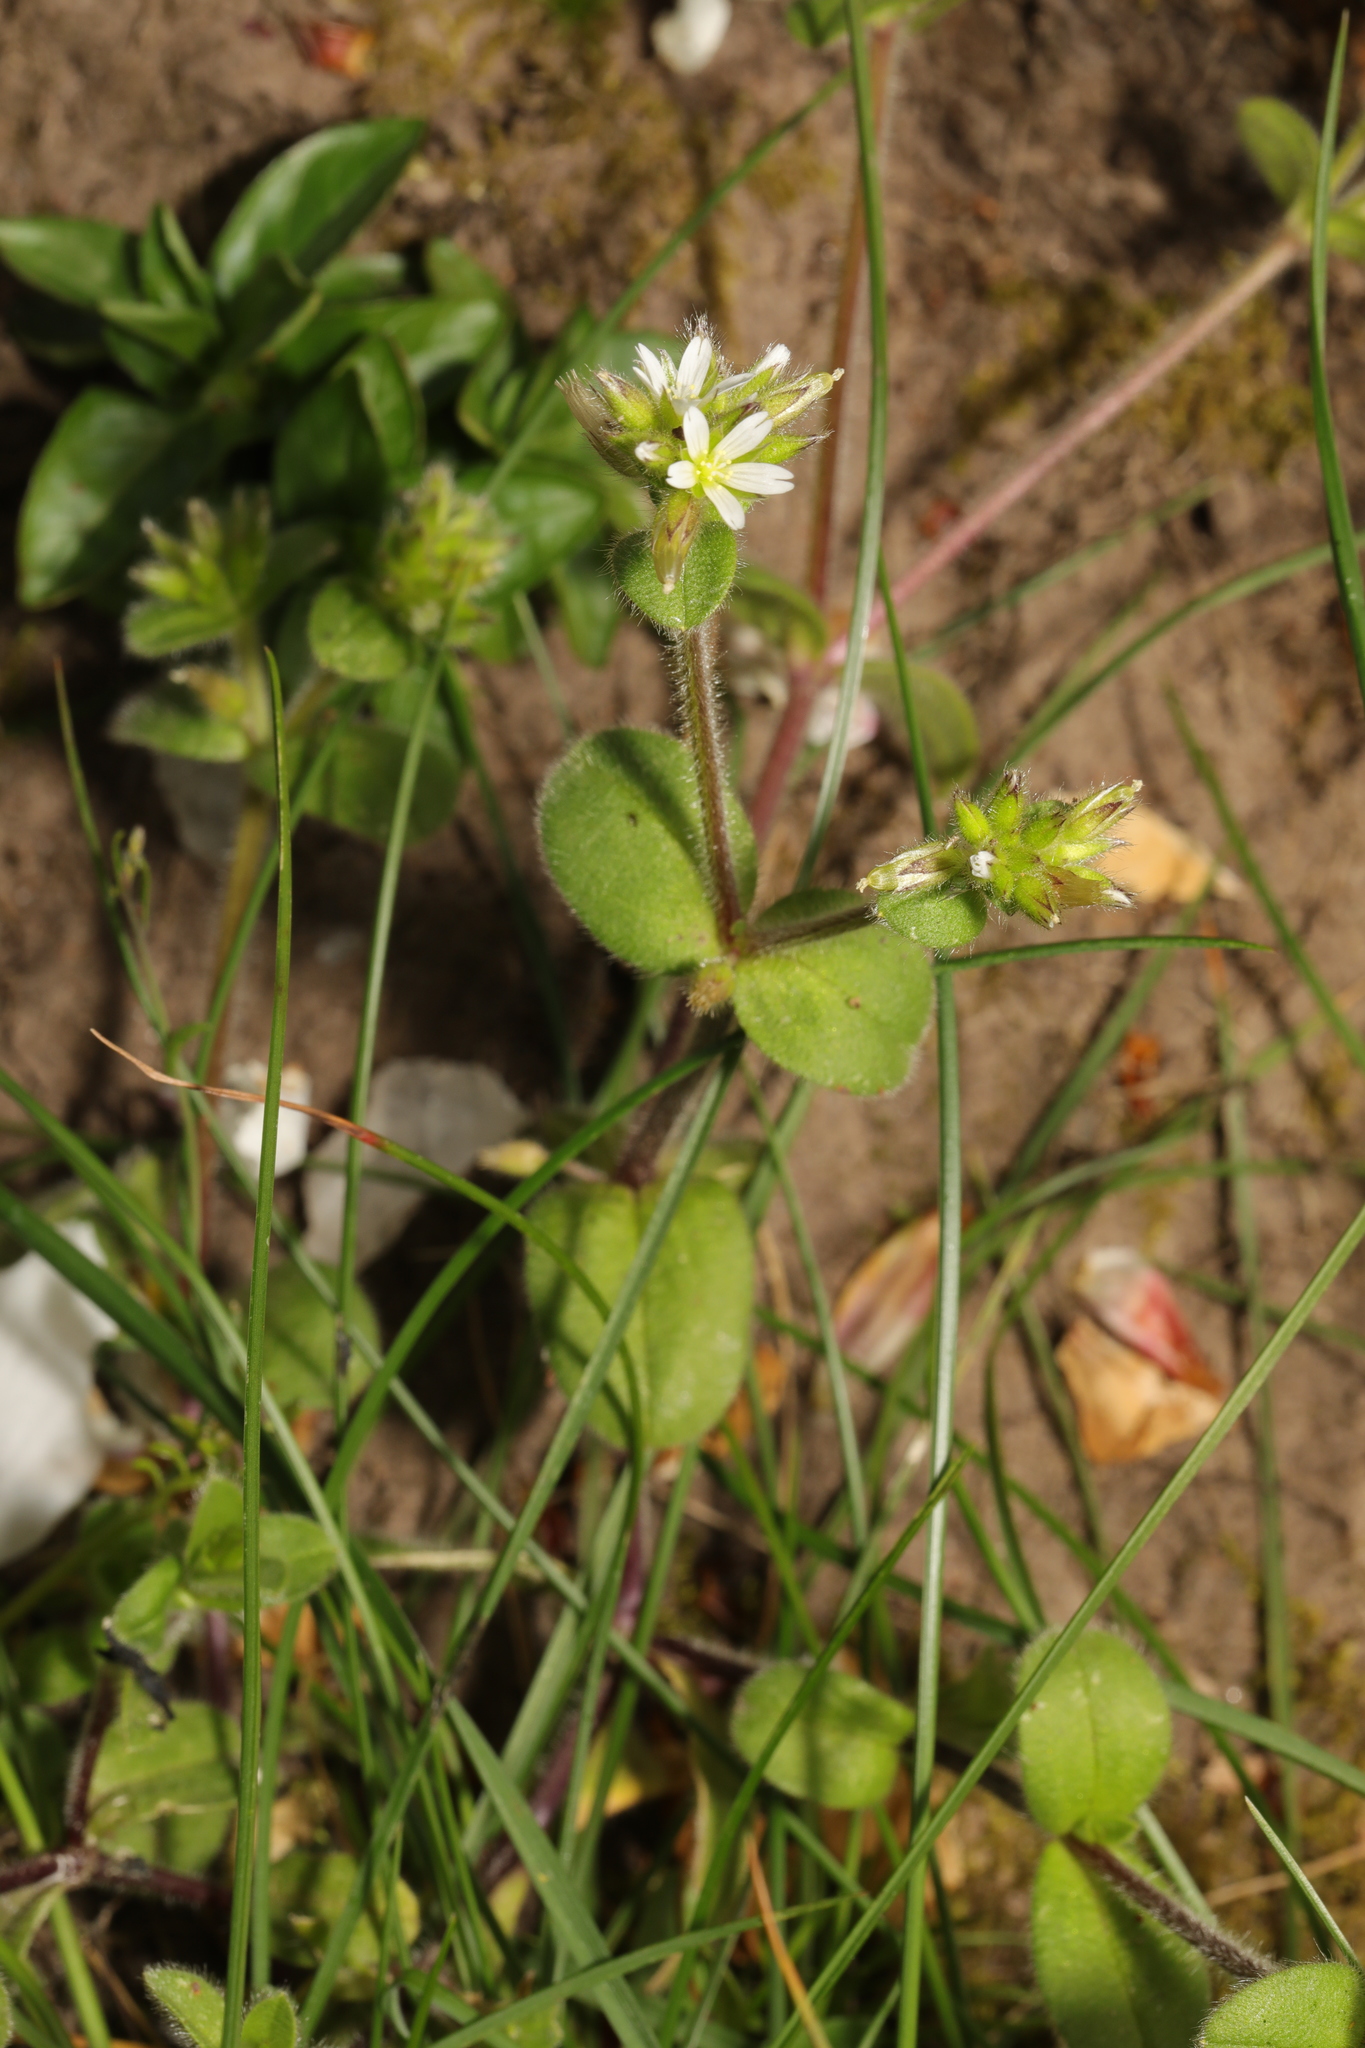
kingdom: Plantae
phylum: Tracheophyta
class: Magnoliopsida
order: Caryophyllales
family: Caryophyllaceae
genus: Cerastium
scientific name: Cerastium glomeratum
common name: Sticky chickweed
